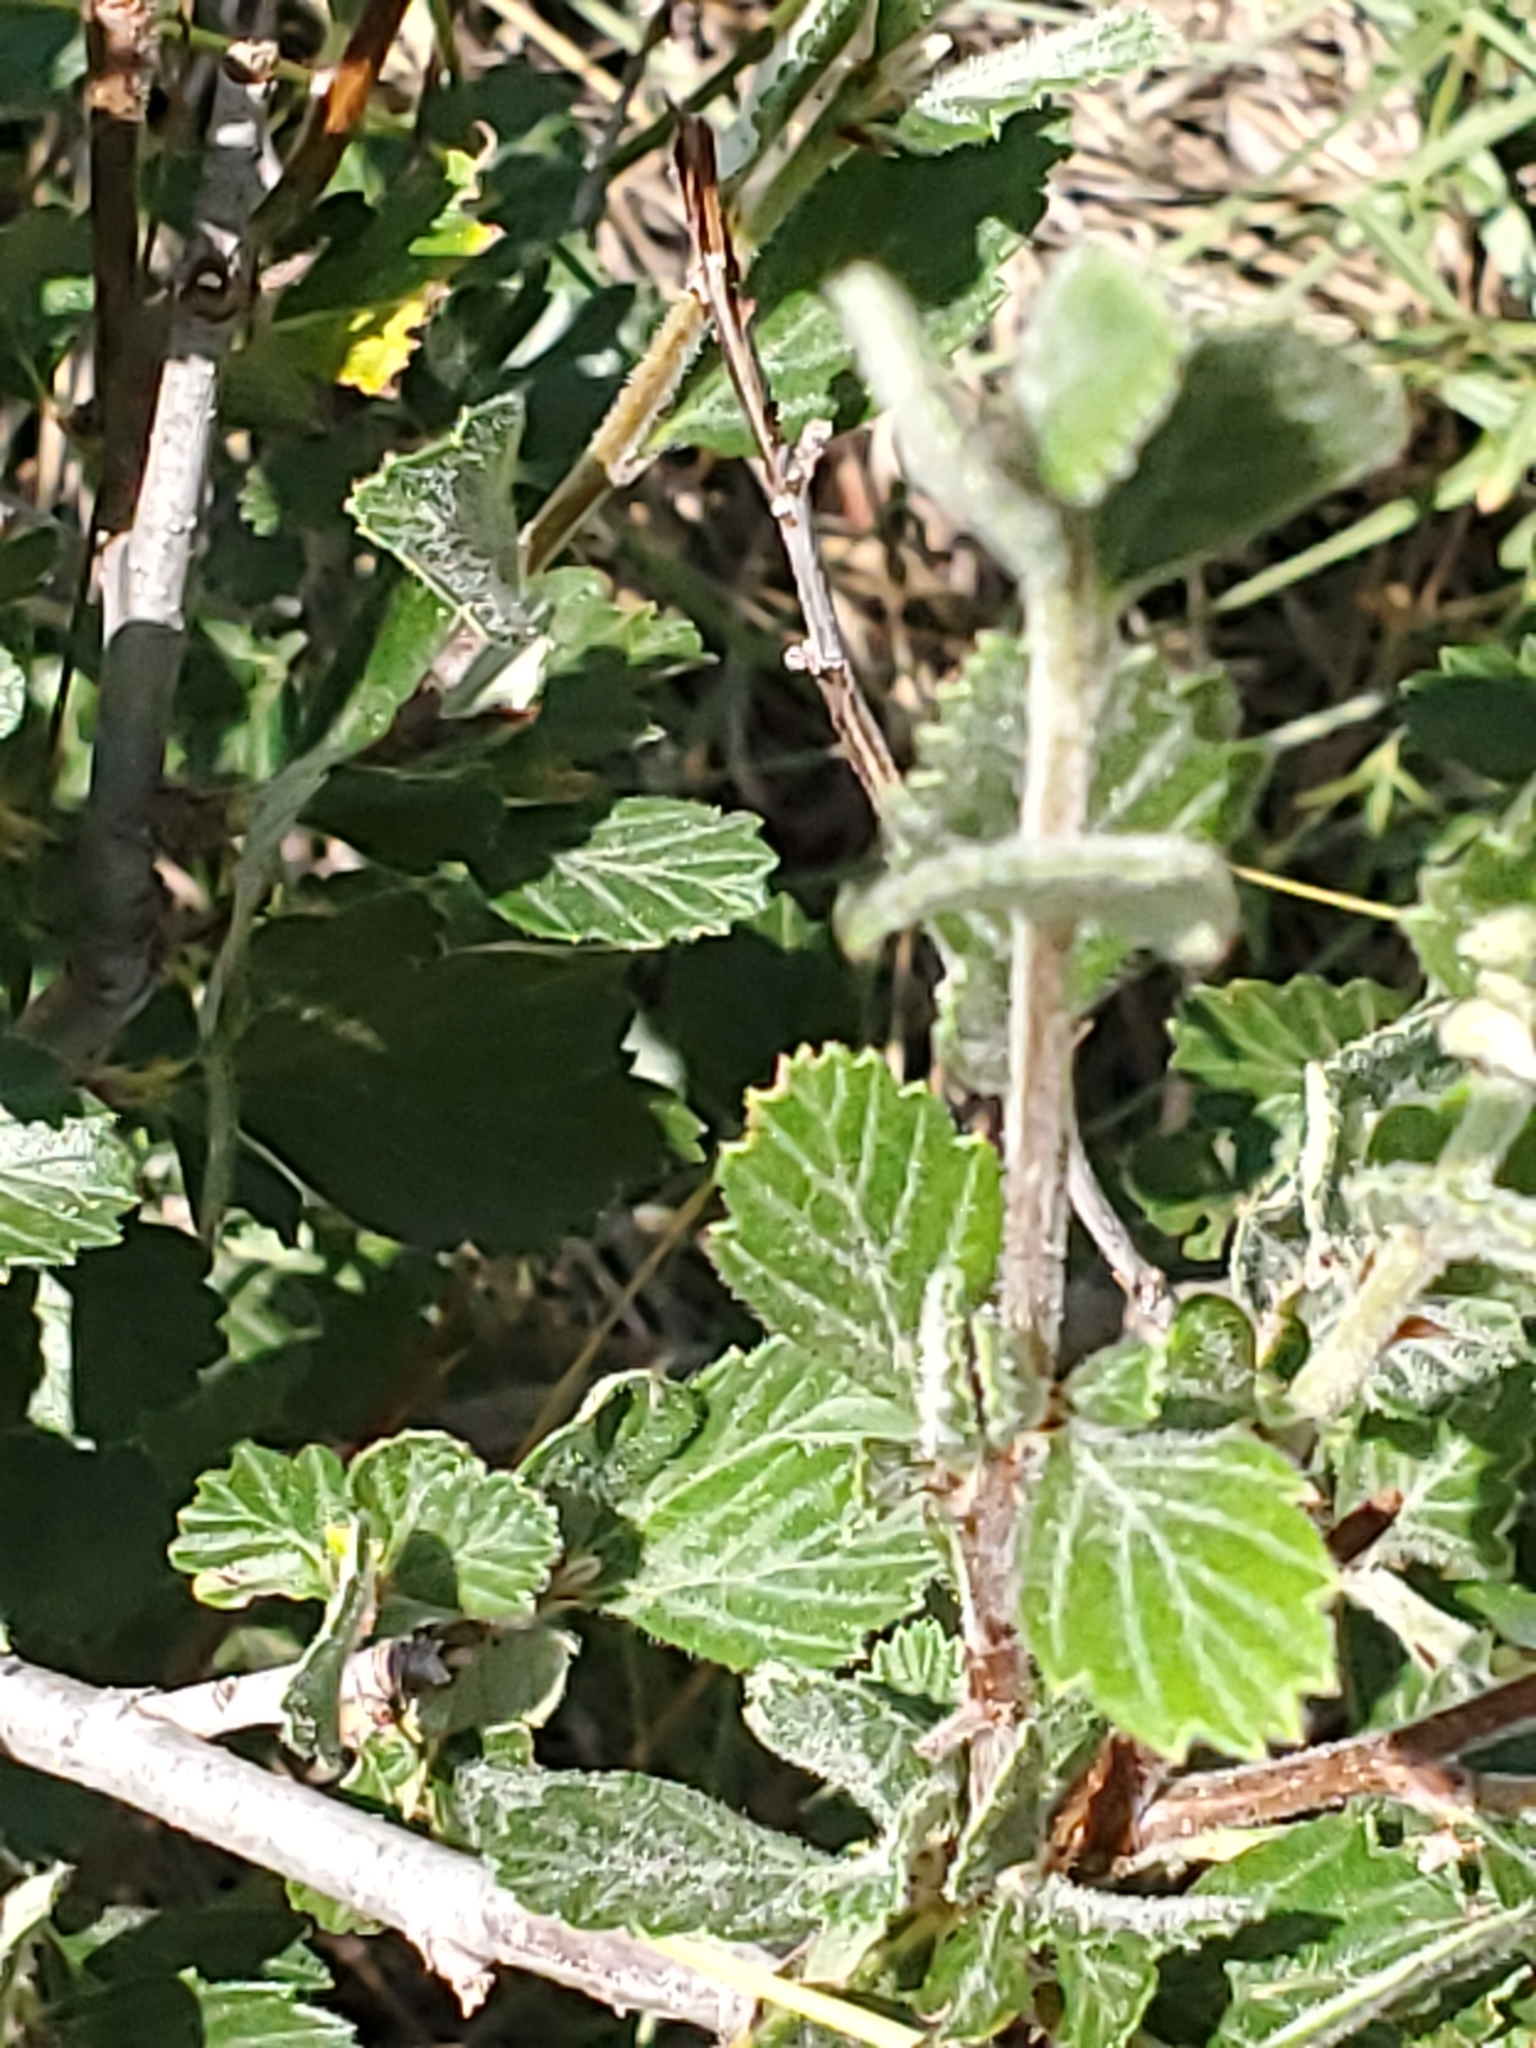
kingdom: Plantae
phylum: Tracheophyta
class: Magnoliopsida
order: Rosales
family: Rosaceae
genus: Cercocarpus
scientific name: Cercocarpus montanus
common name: Alder-leaf cercocarpus
